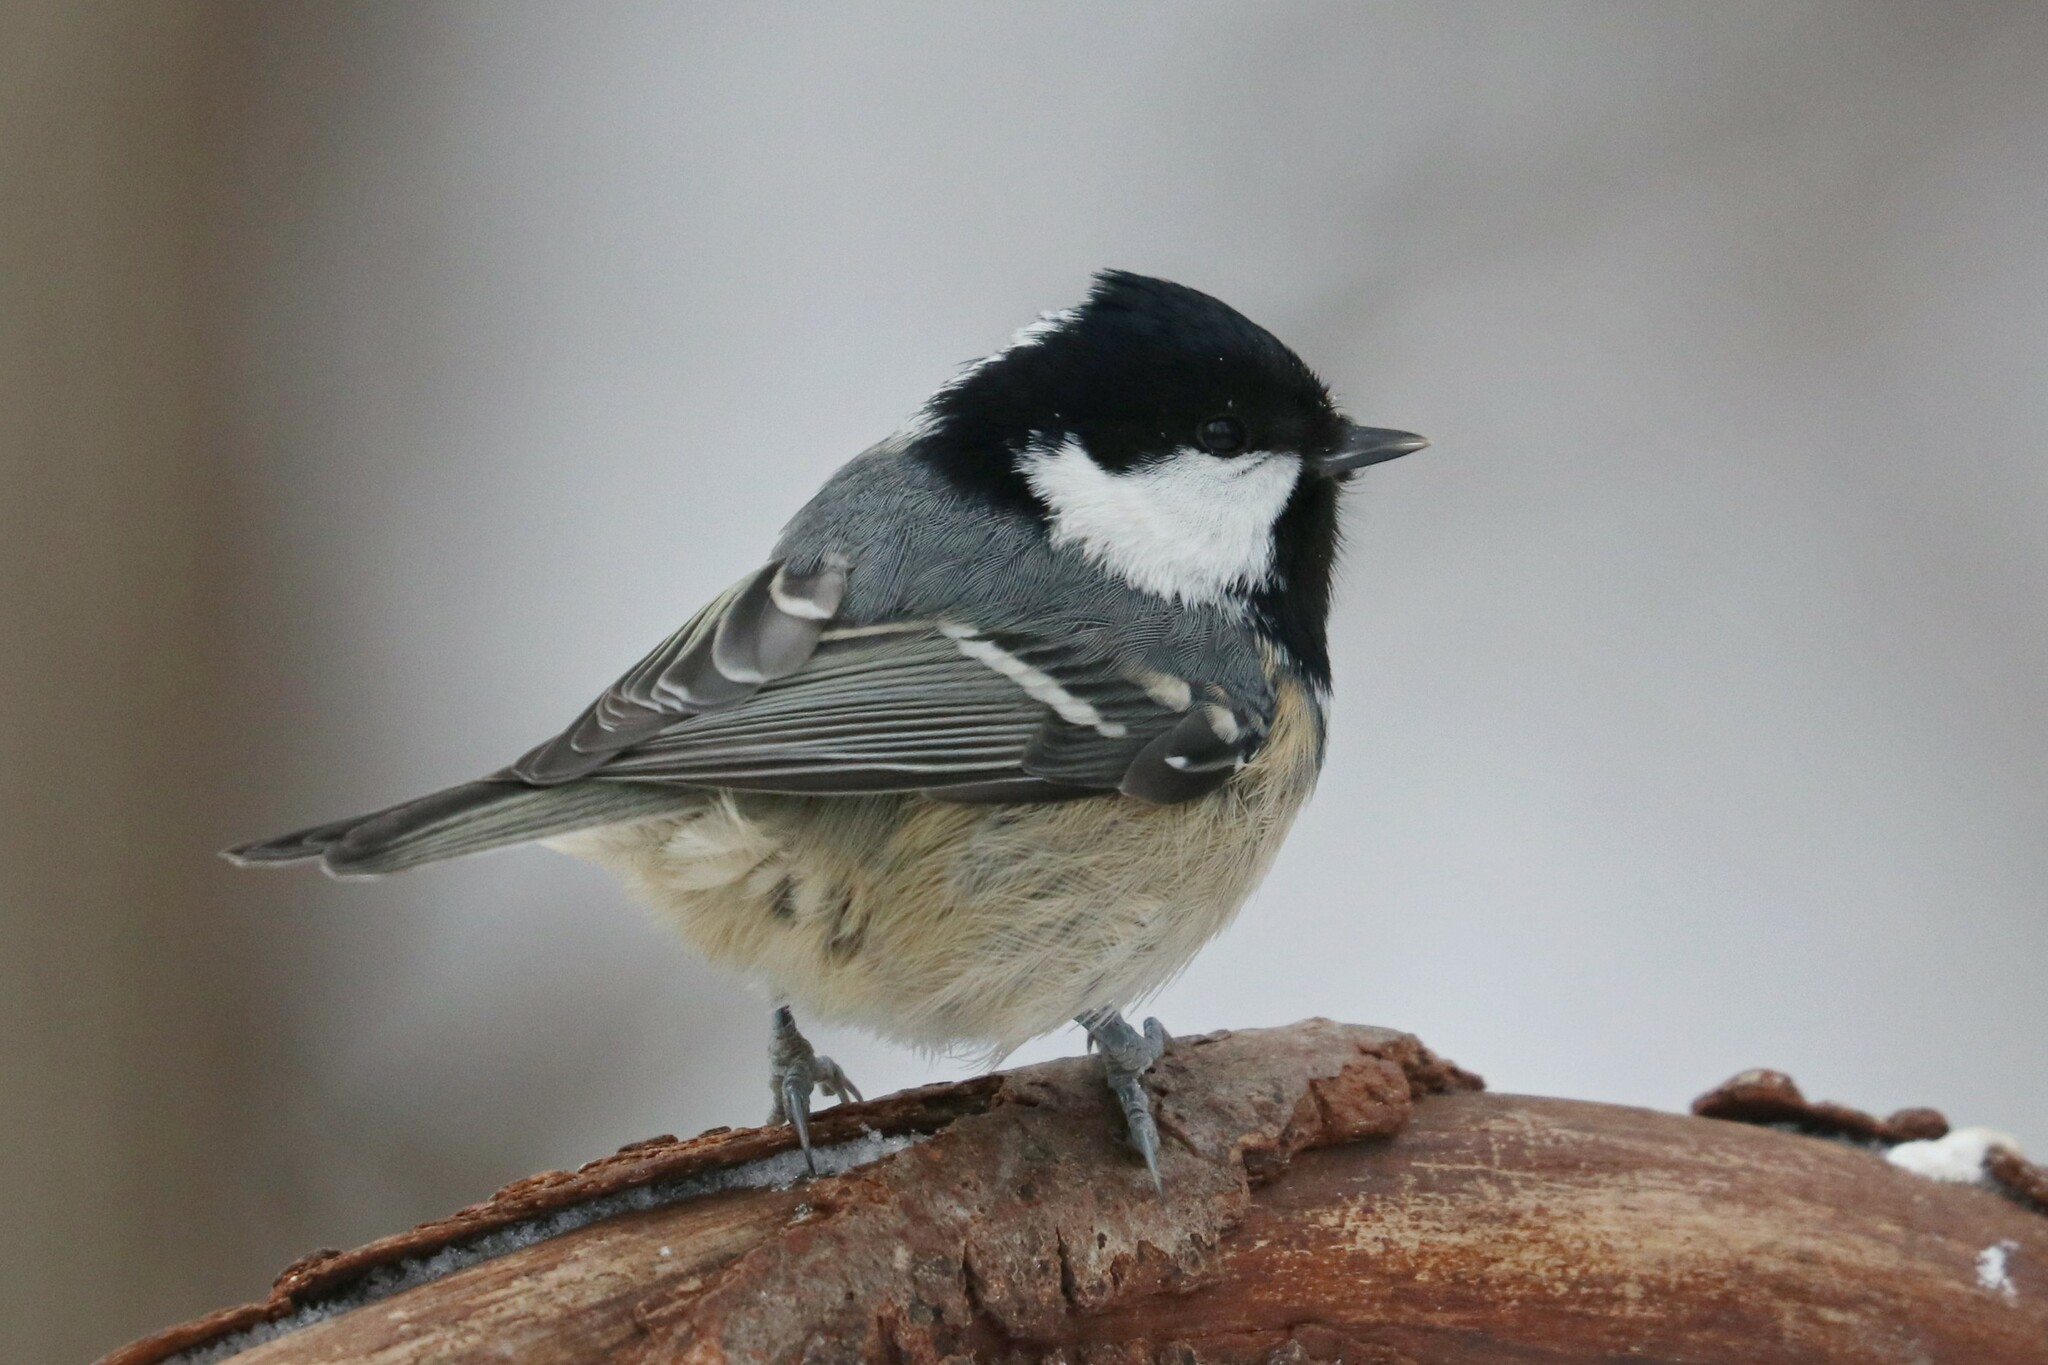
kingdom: Animalia
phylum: Chordata
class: Aves
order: Passeriformes
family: Paridae
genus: Periparus
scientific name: Periparus ater
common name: Coal tit
